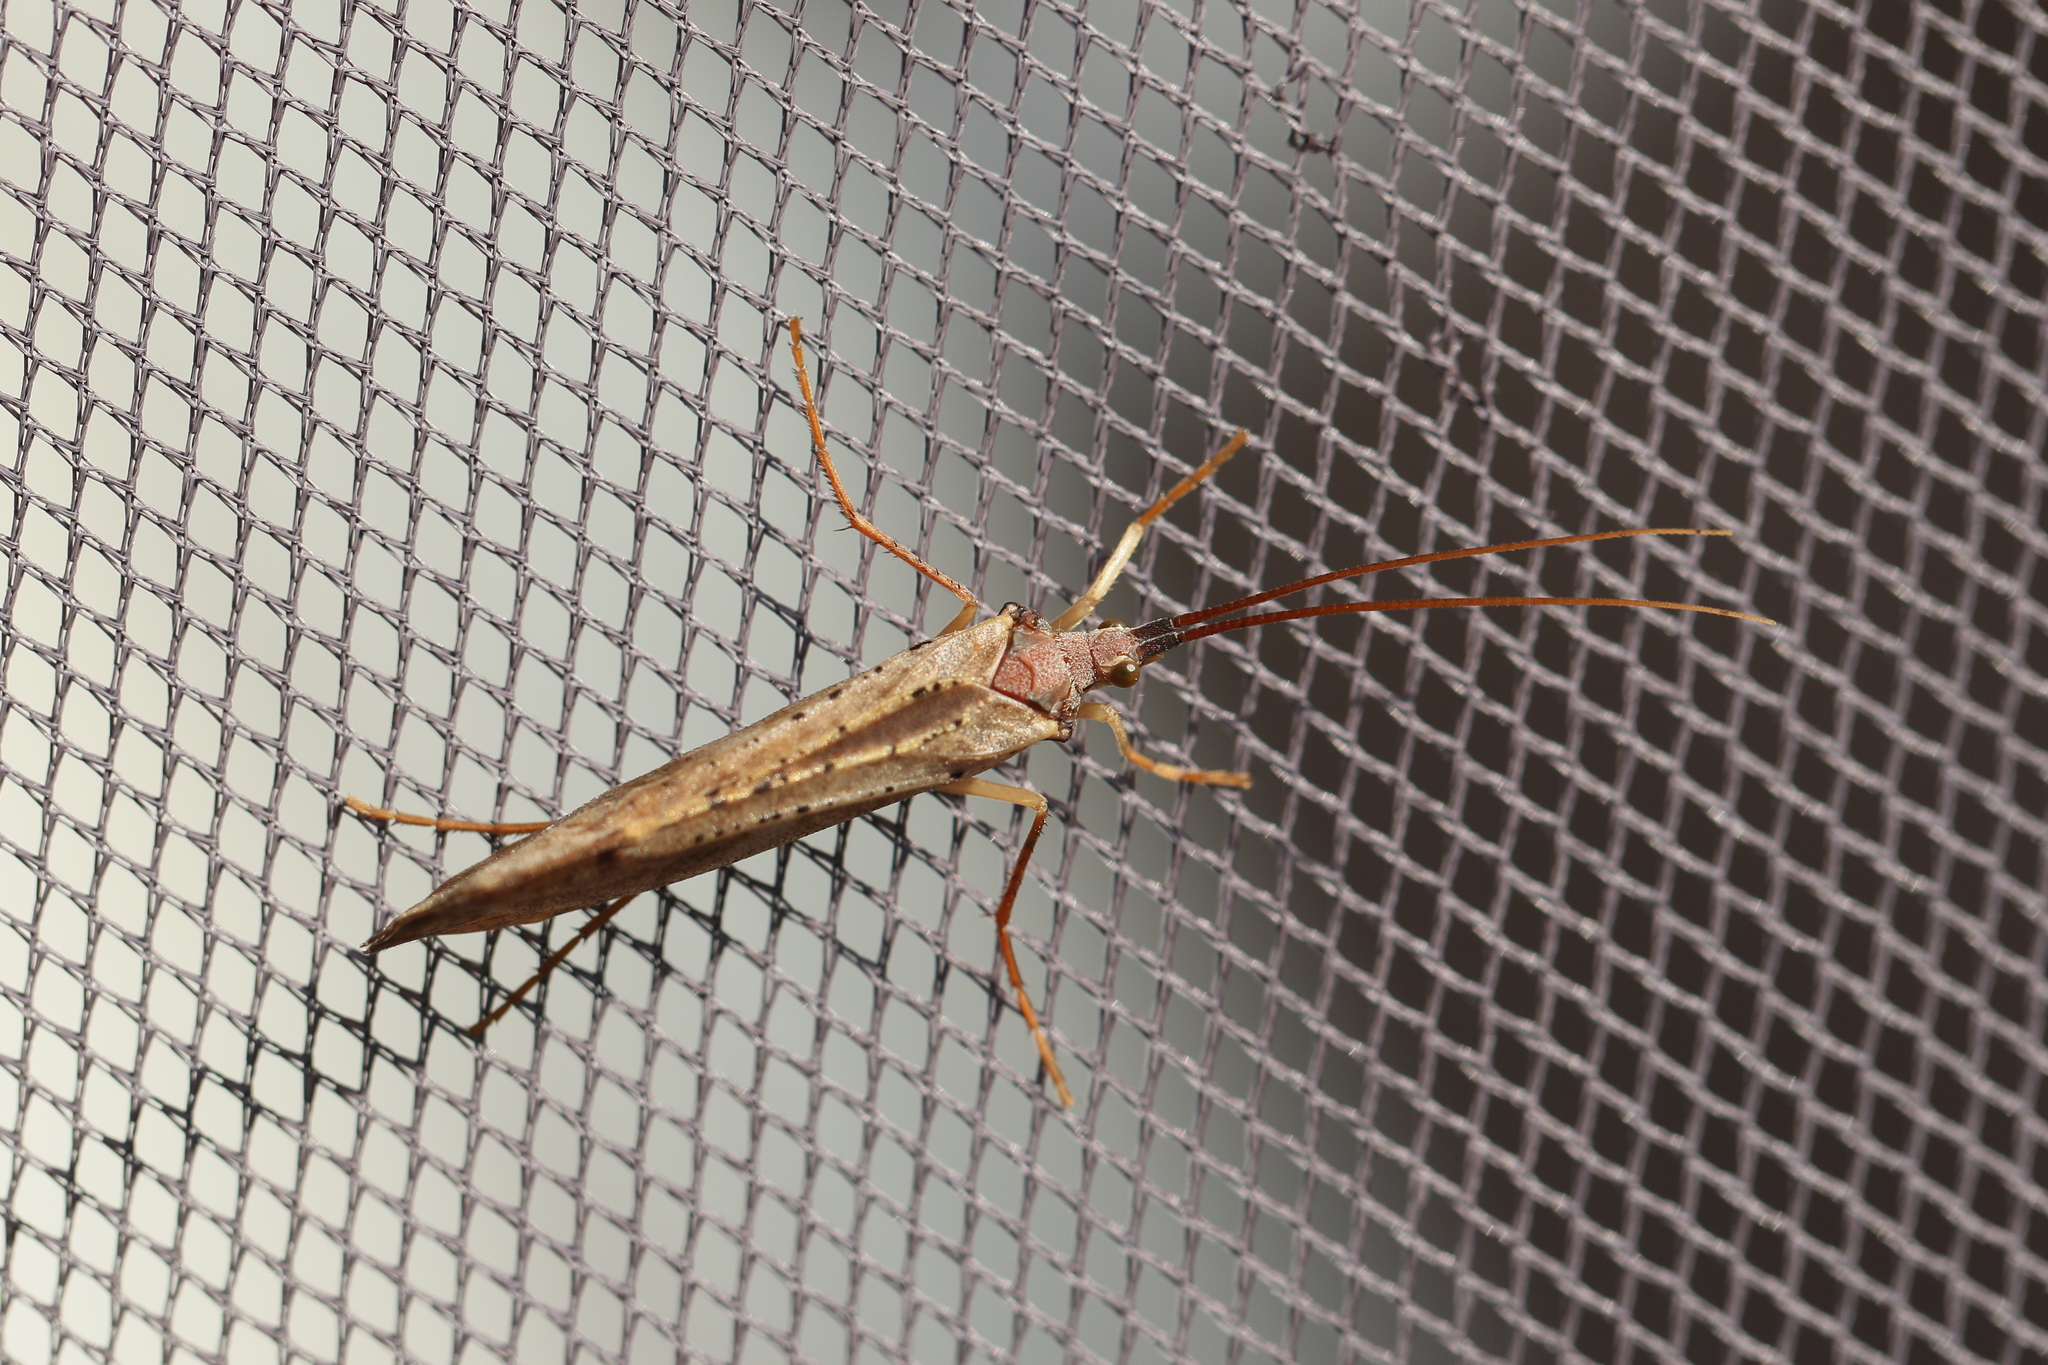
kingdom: Animalia
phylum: Arthropoda
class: Insecta
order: Trichoptera
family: Limnephilidae
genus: Nemotaulius
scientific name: Nemotaulius hostilis
